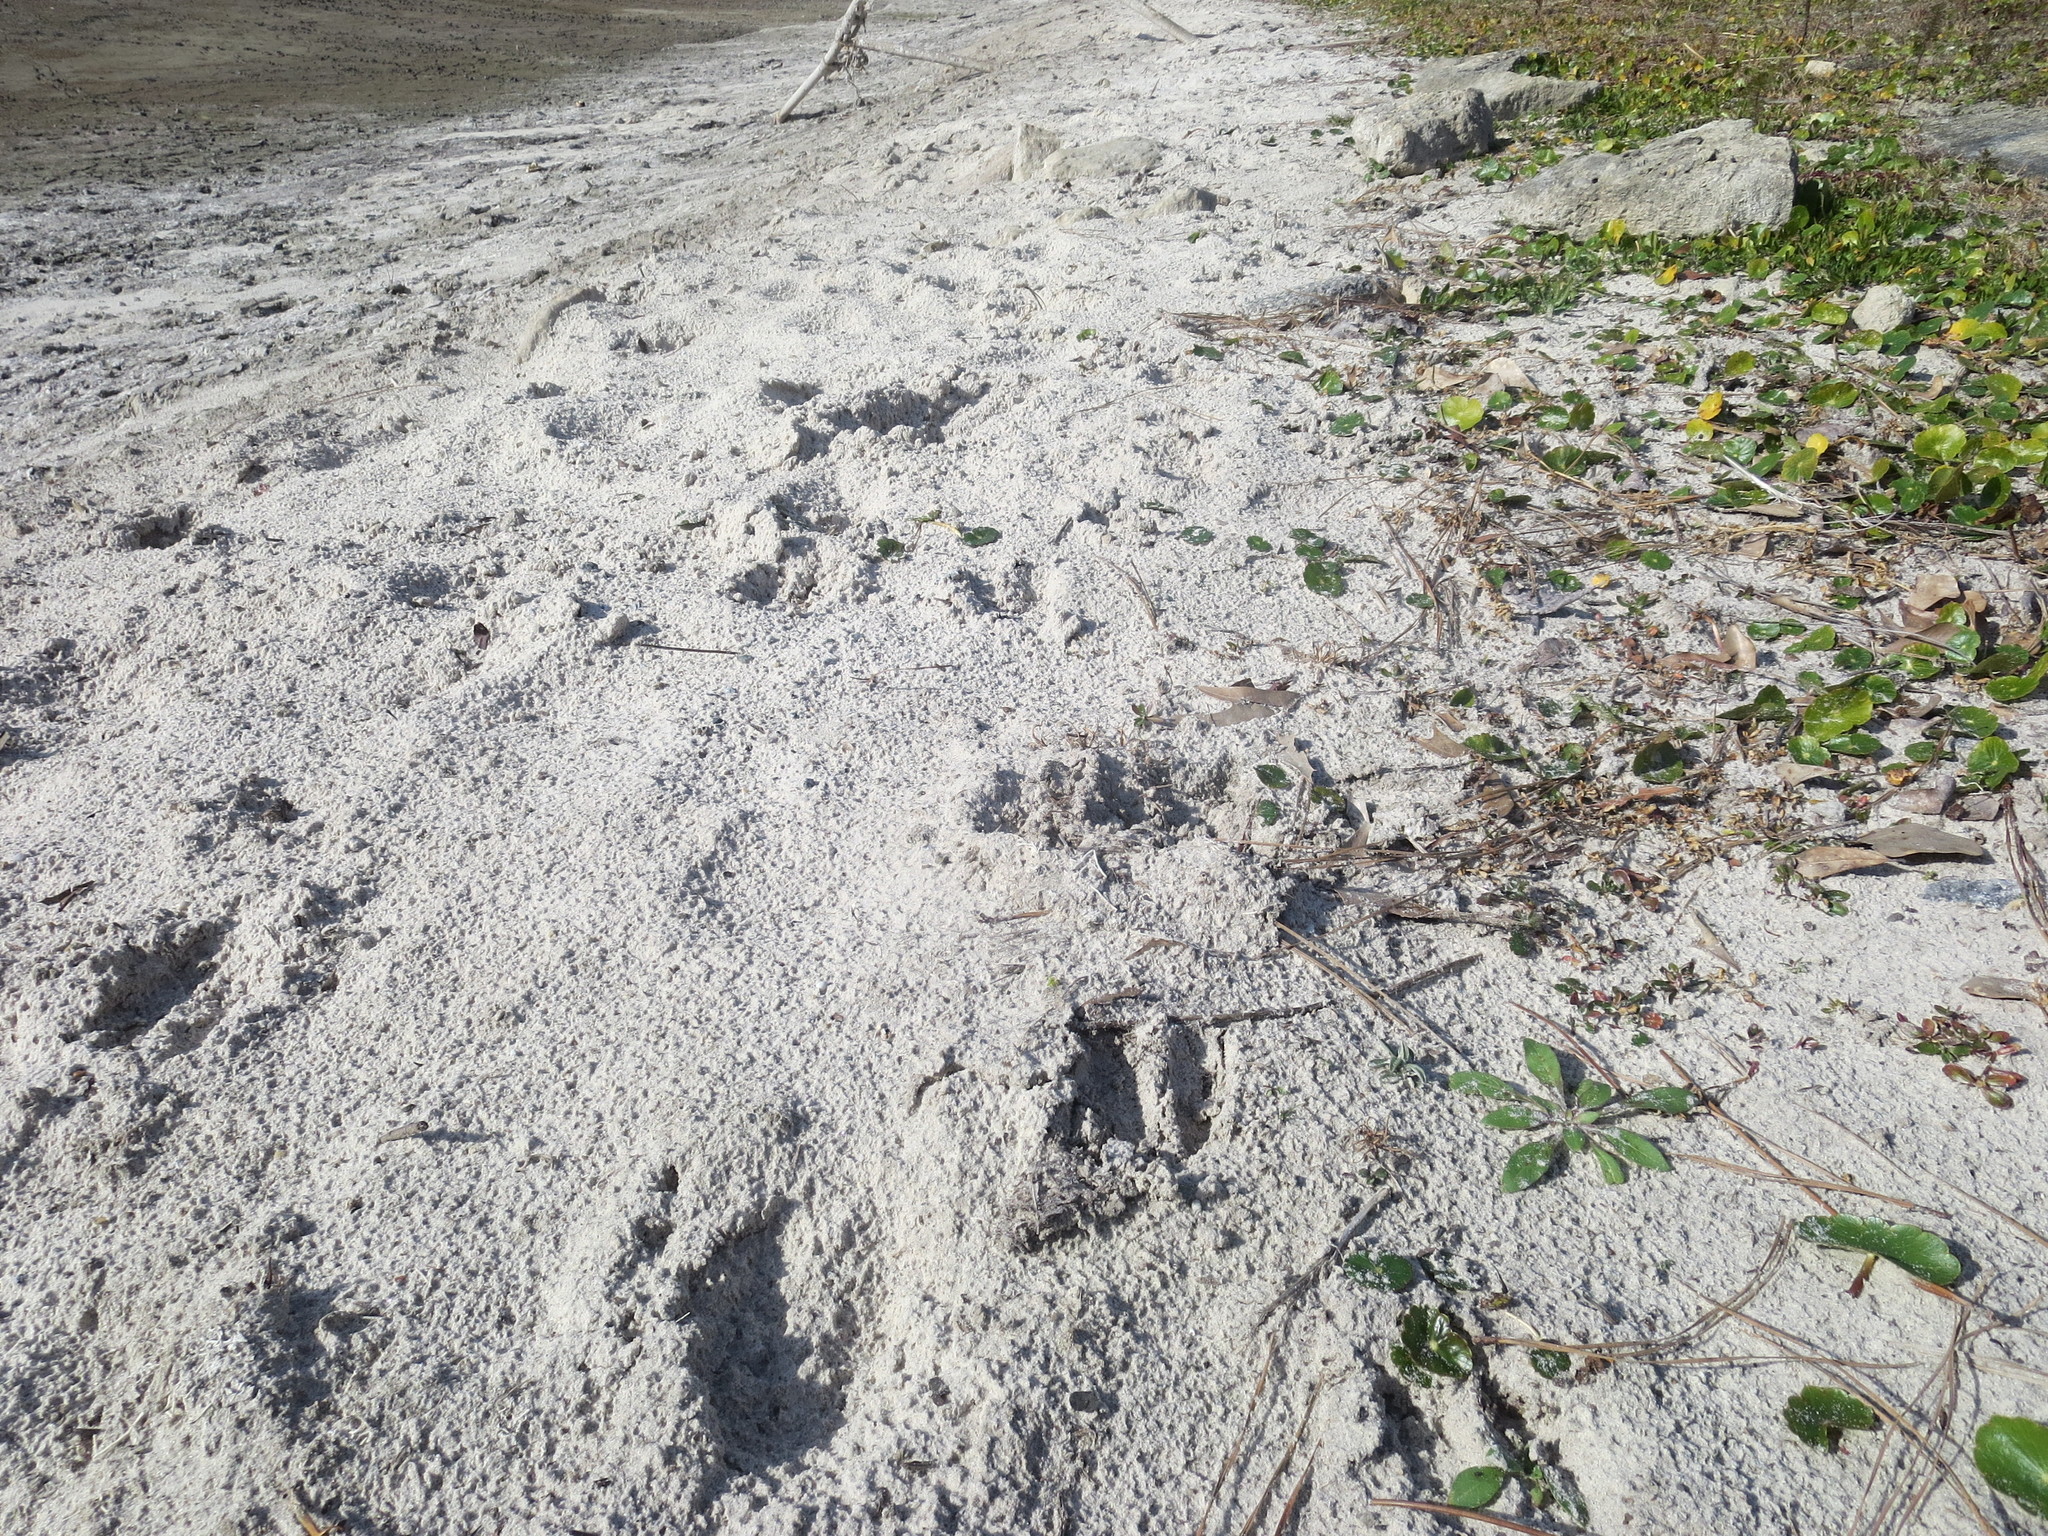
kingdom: Animalia
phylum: Chordata
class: Mammalia
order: Artiodactyla
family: Cervidae
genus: Odocoileus
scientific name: Odocoileus virginianus
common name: White-tailed deer
